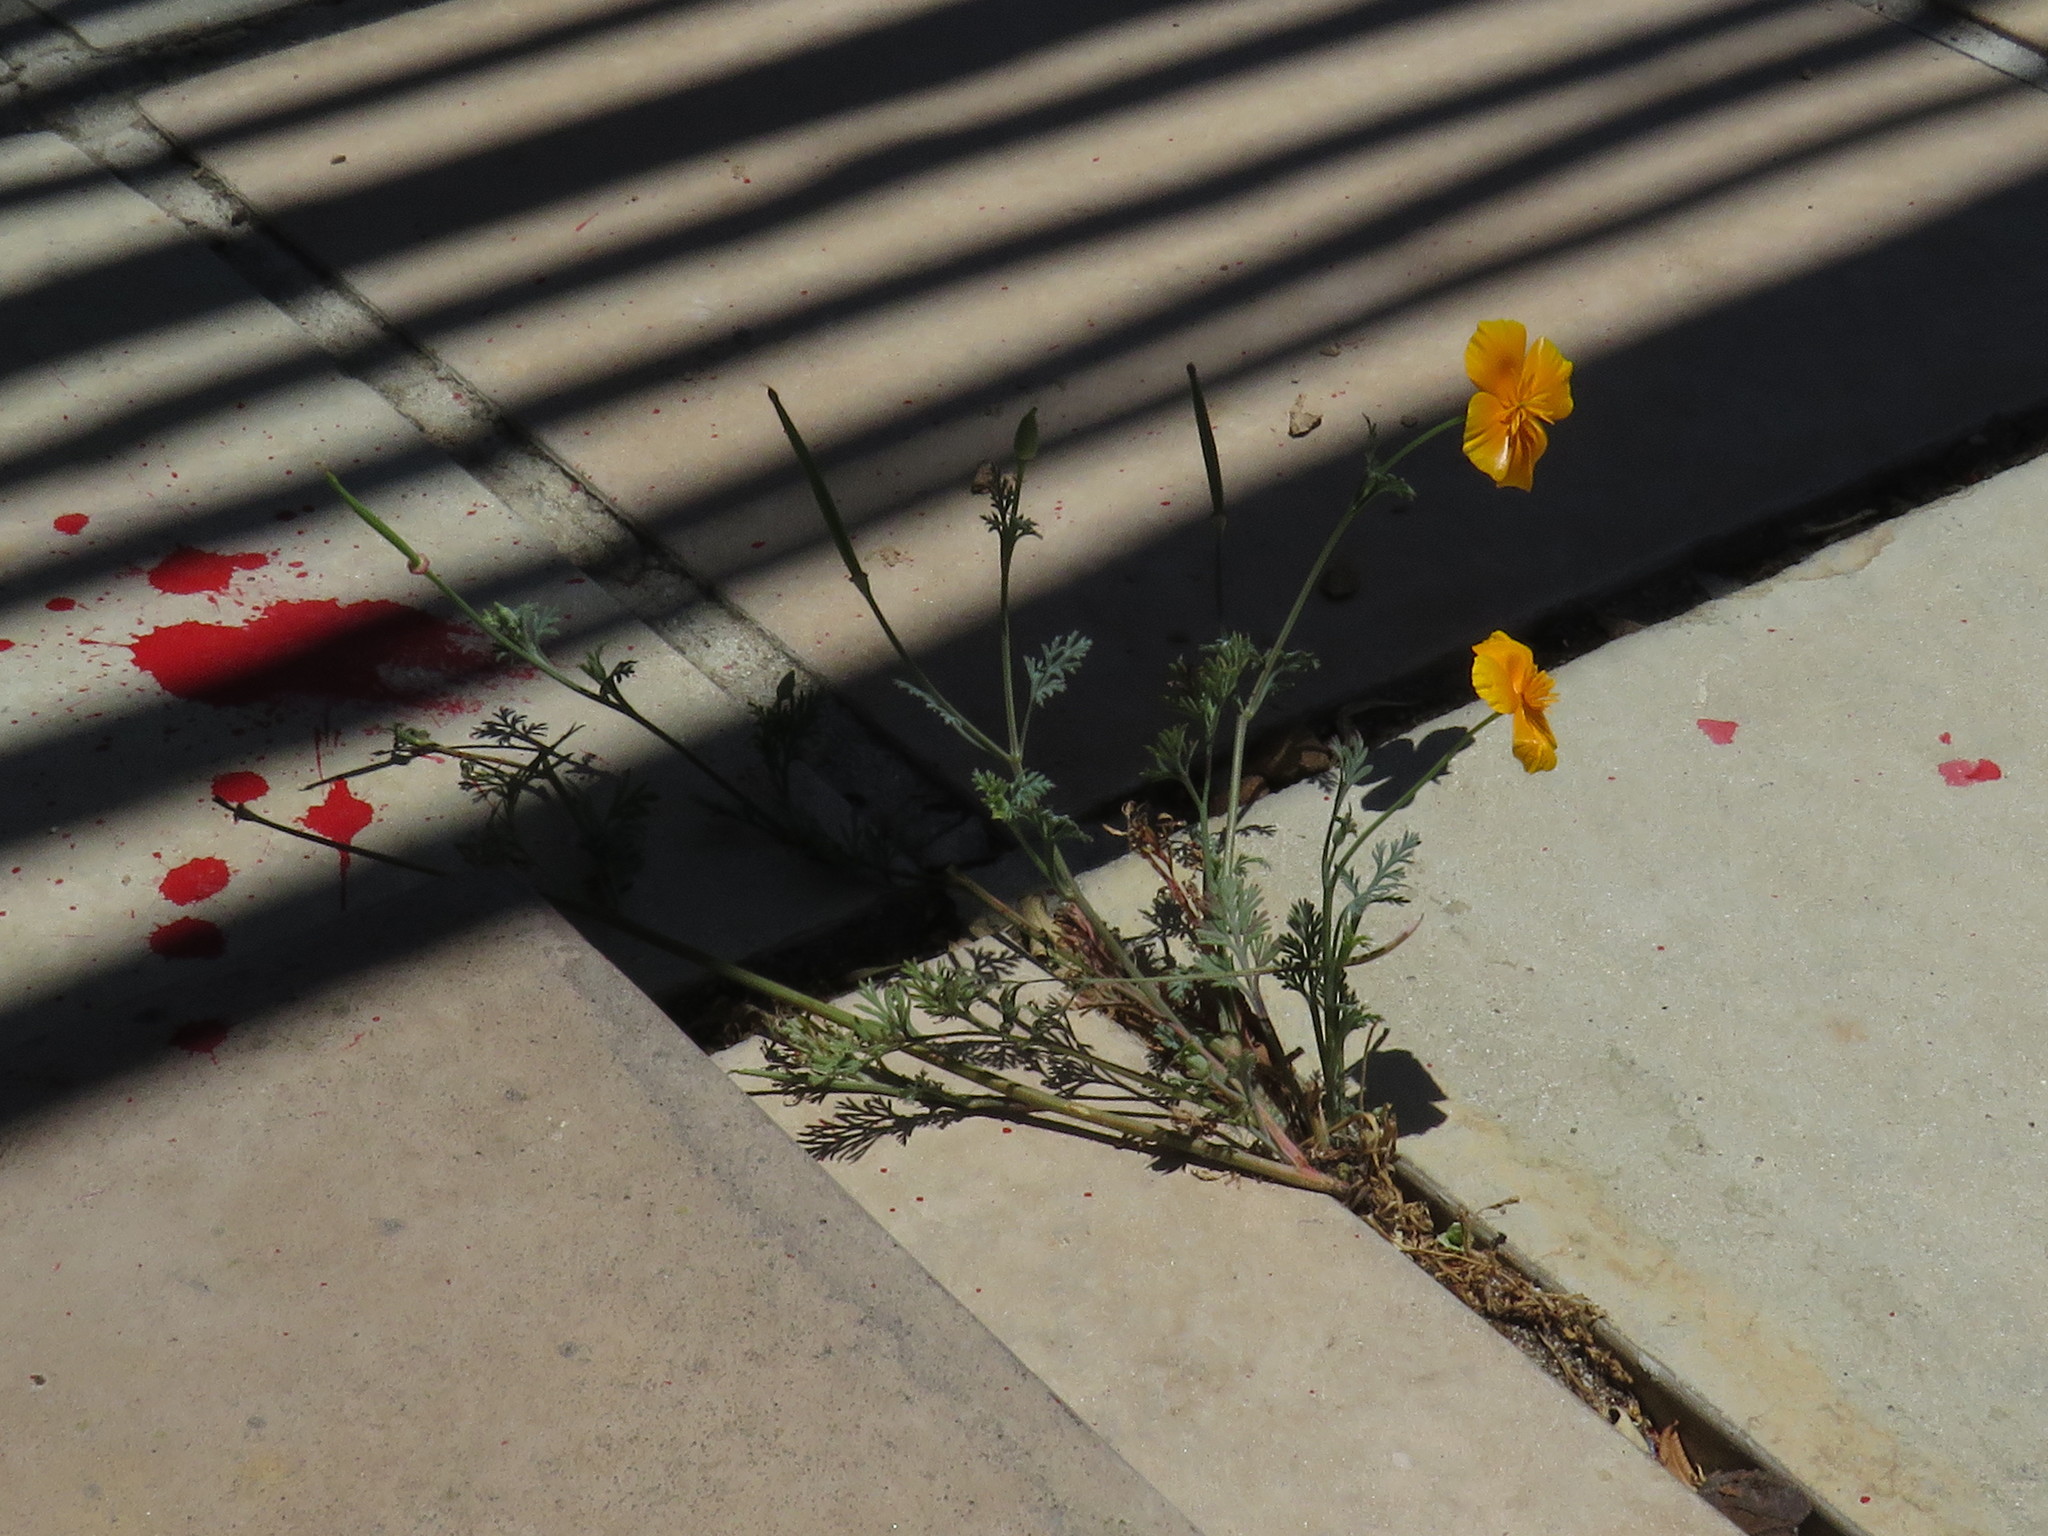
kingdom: Plantae
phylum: Tracheophyta
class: Magnoliopsida
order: Ranunculales
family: Papaveraceae
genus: Eschscholzia
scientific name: Eschscholzia californica
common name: California poppy
